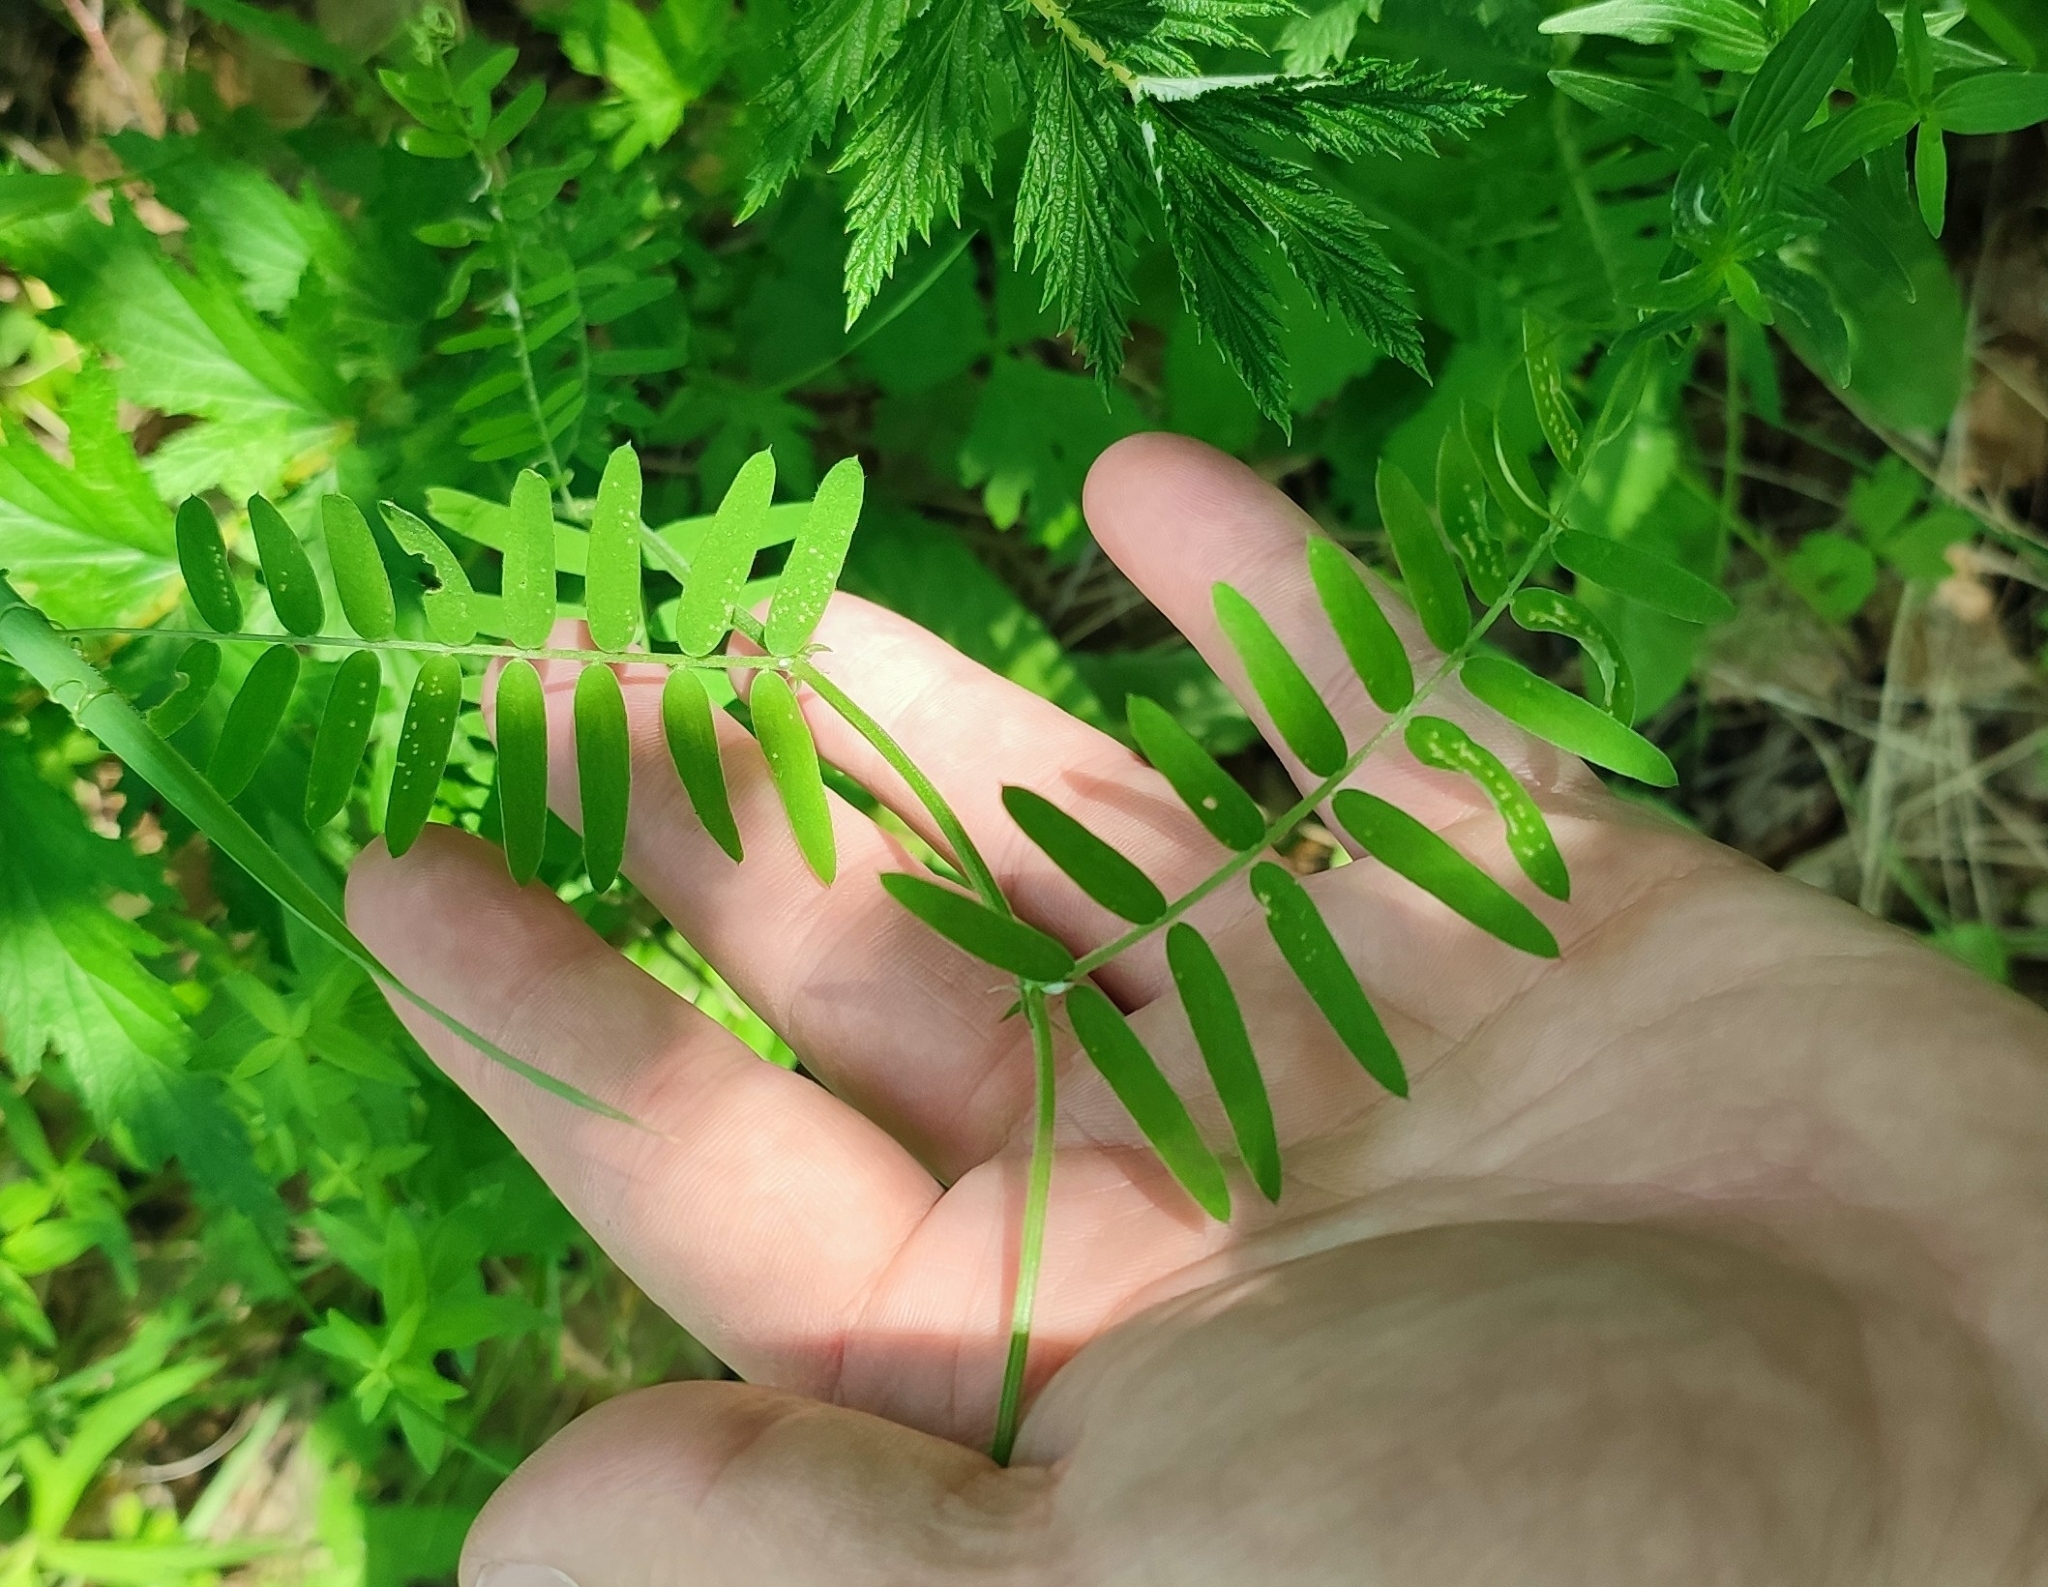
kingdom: Plantae
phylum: Tracheophyta
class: Magnoliopsida
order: Fabales
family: Fabaceae
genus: Vicia
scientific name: Vicia cracca
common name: Bird vetch
